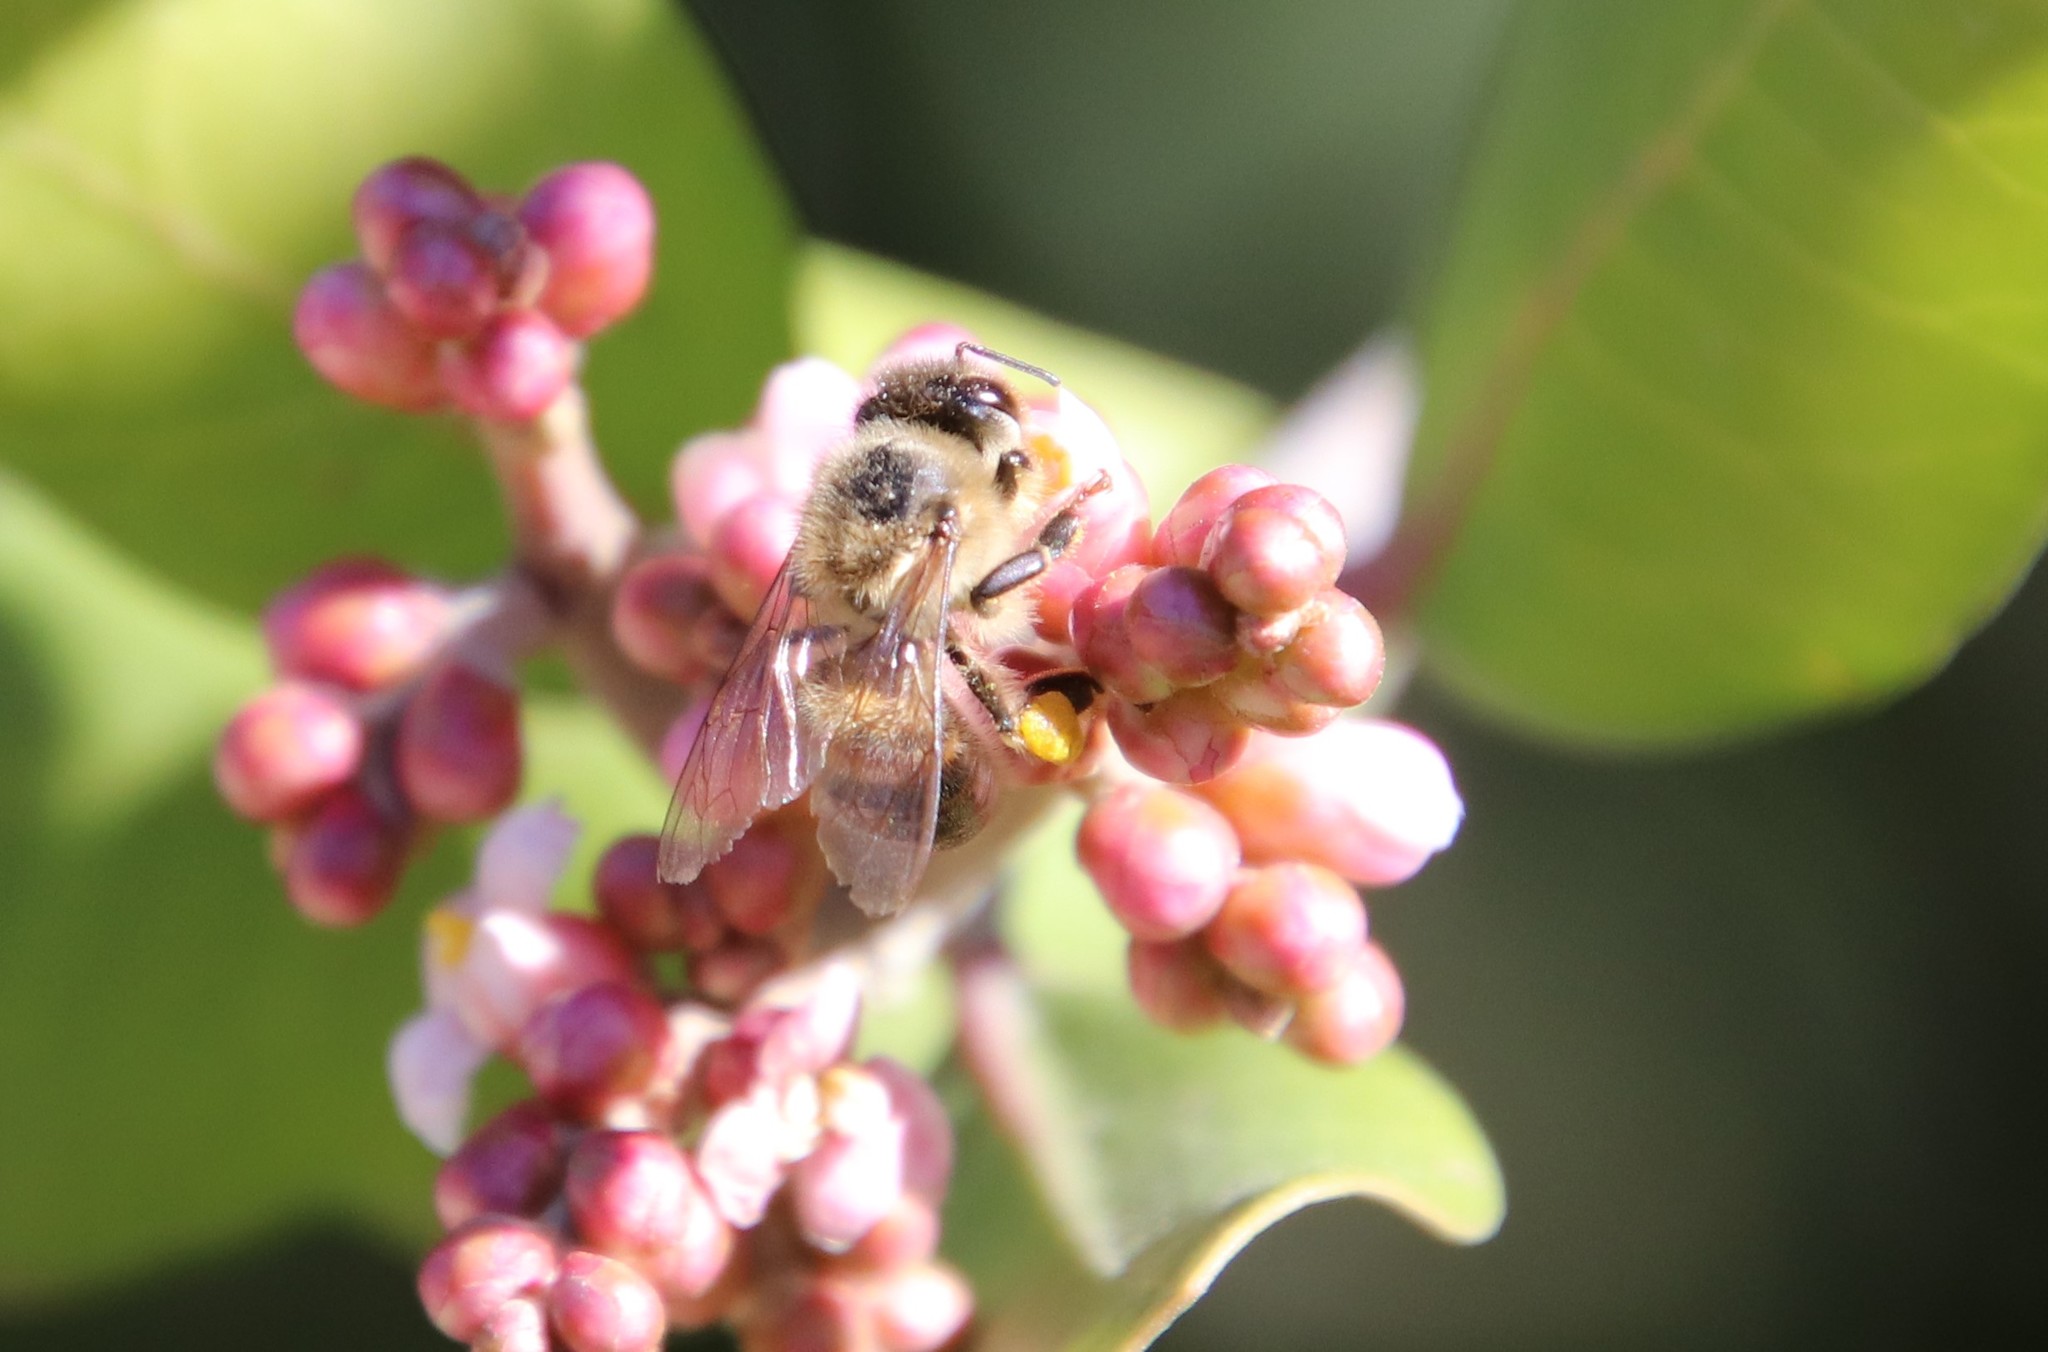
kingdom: Animalia
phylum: Arthropoda
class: Insecta
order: Hymenoptera
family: Apidae
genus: Apis
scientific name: Apis mellifera
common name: Honey bee
